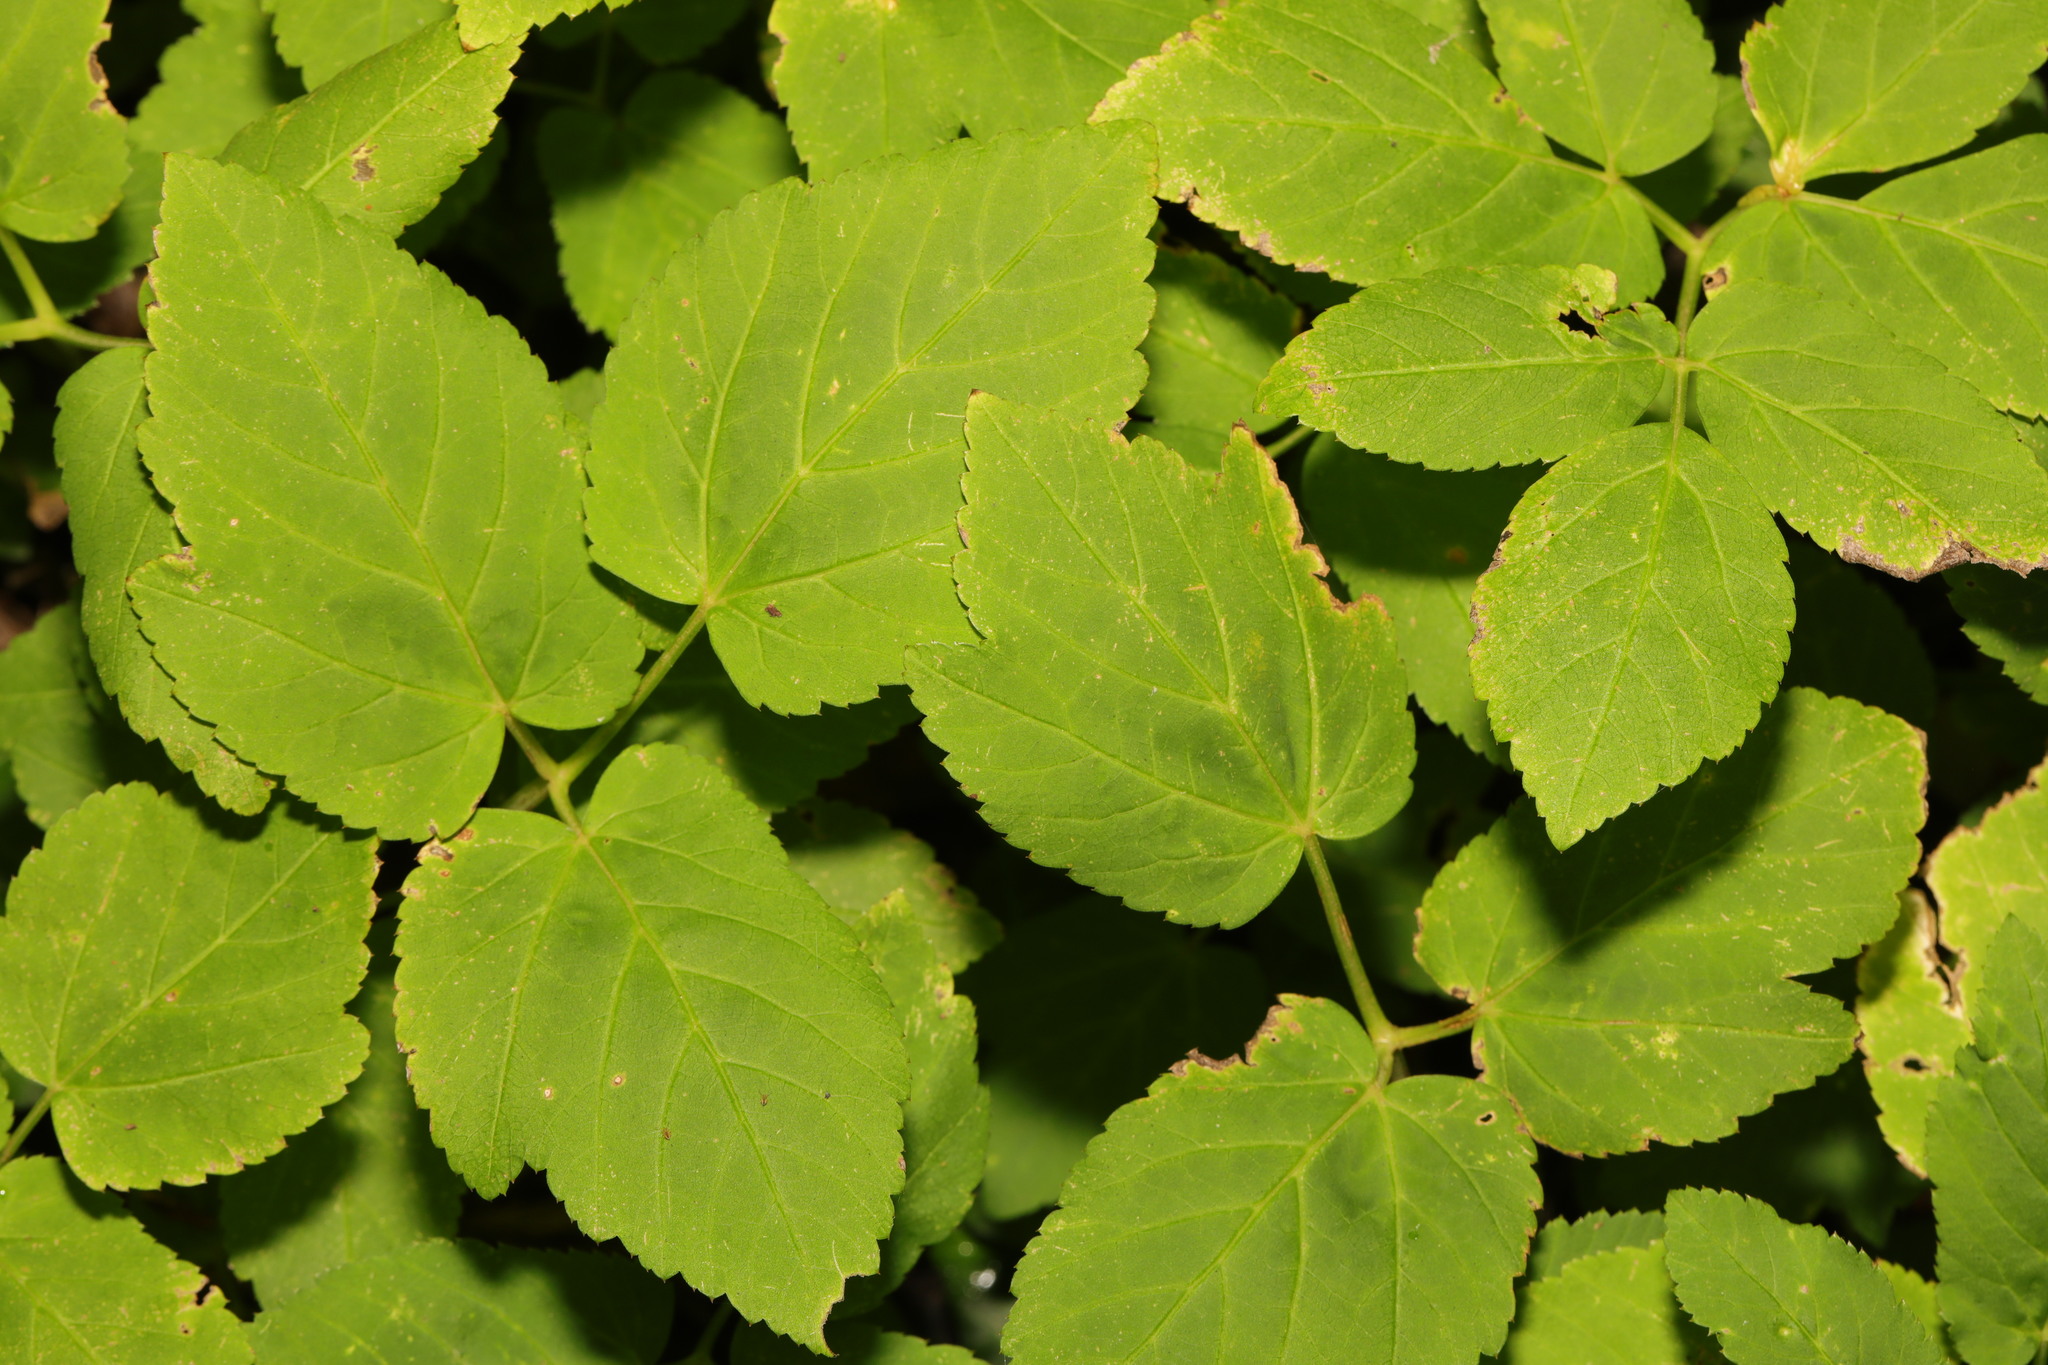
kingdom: Plantae
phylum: Tracheophyta
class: Magnoliopsida
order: Apiales
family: Apiaceae
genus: Aegopodium
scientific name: Aegopodium podagraria
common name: Ground-elder
